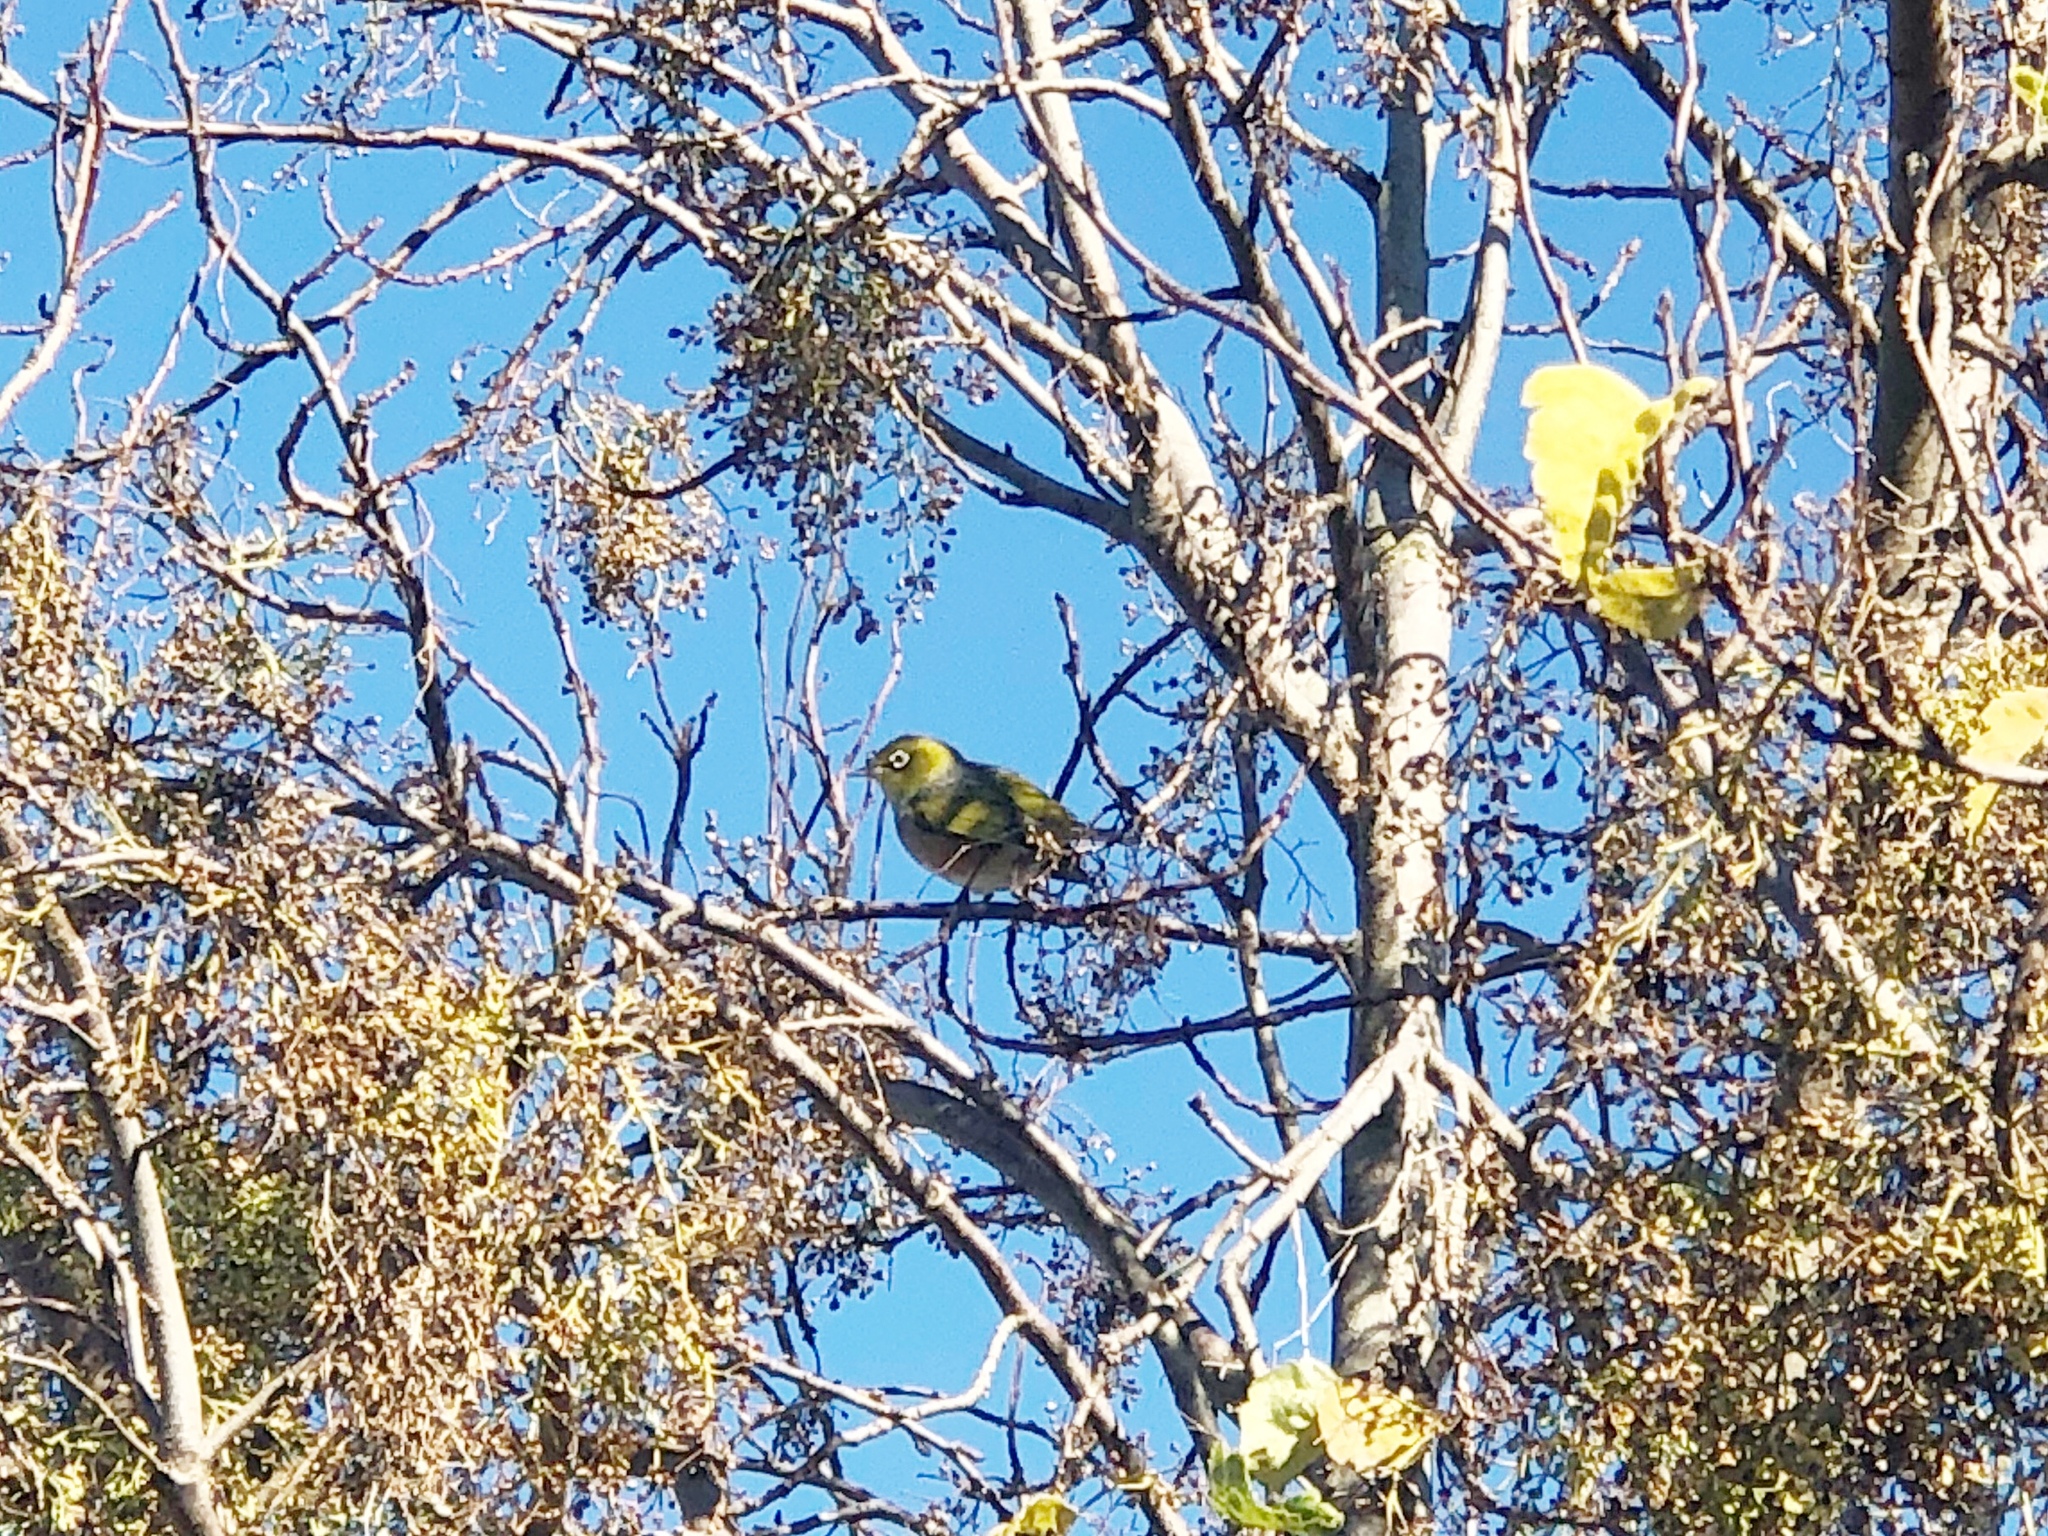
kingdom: Animalia
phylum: Chordata
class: Aves
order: Passeriformes
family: Zosteropidae
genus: Zosterops
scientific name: Zosterops lateralis
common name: Silvereye
